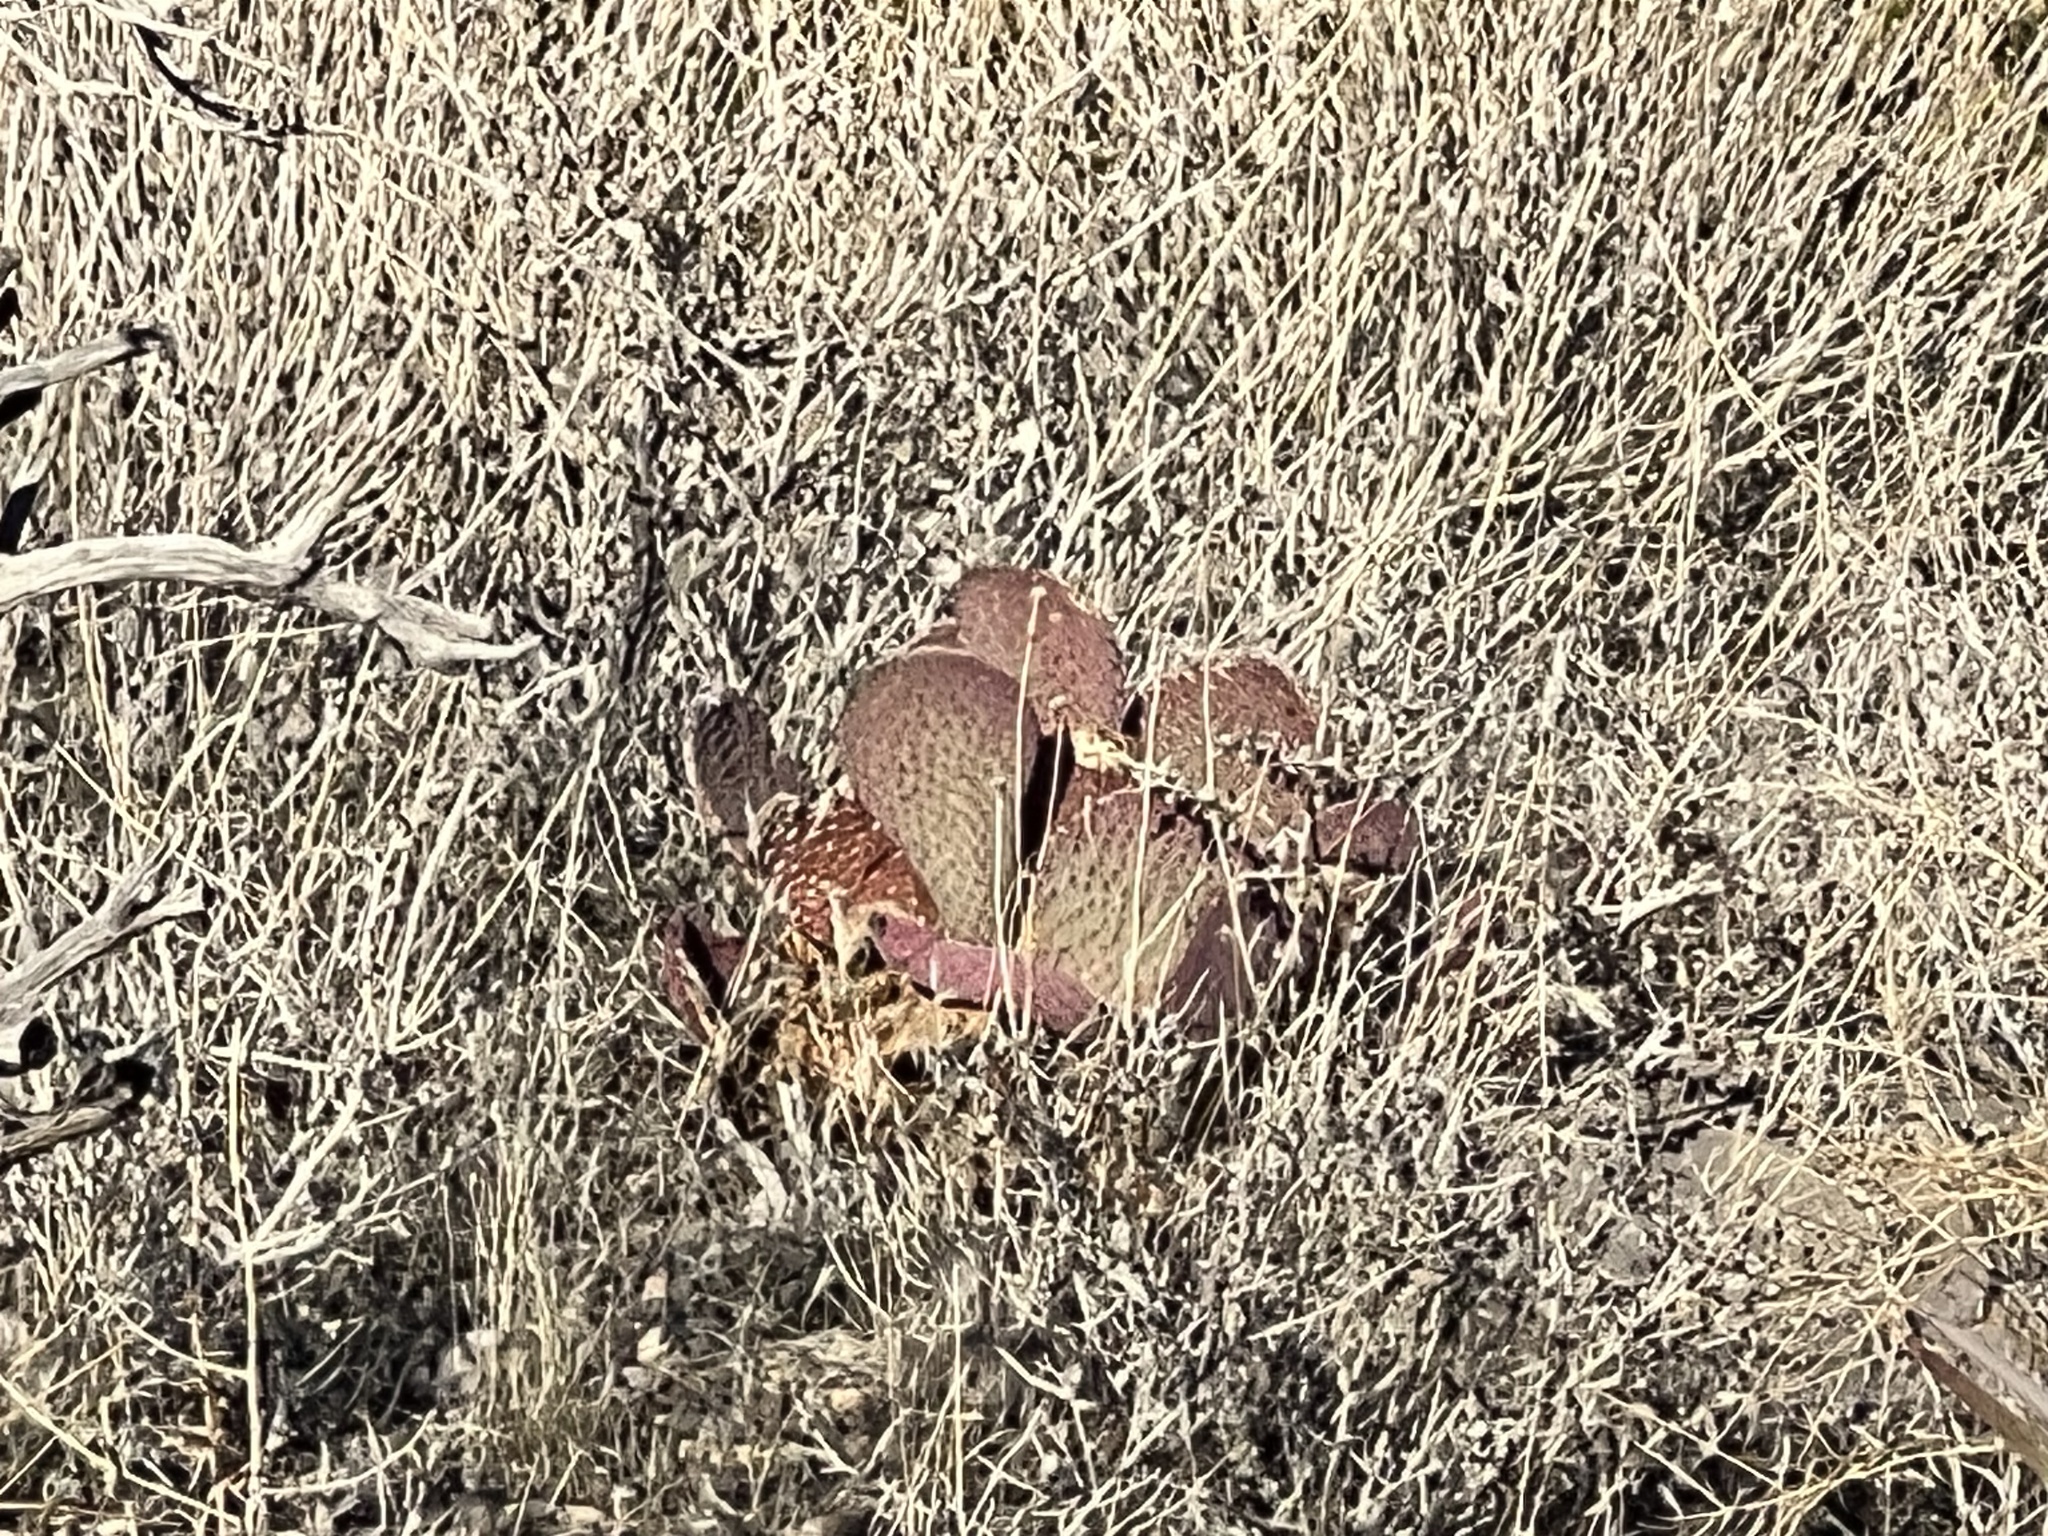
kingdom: Plantae
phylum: Tracheophyta
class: Magnoliopsida
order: Caryophyllales
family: Cactaceae
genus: Opuntia
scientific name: Opuntia basilaris
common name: Beavertail prickly-pear
